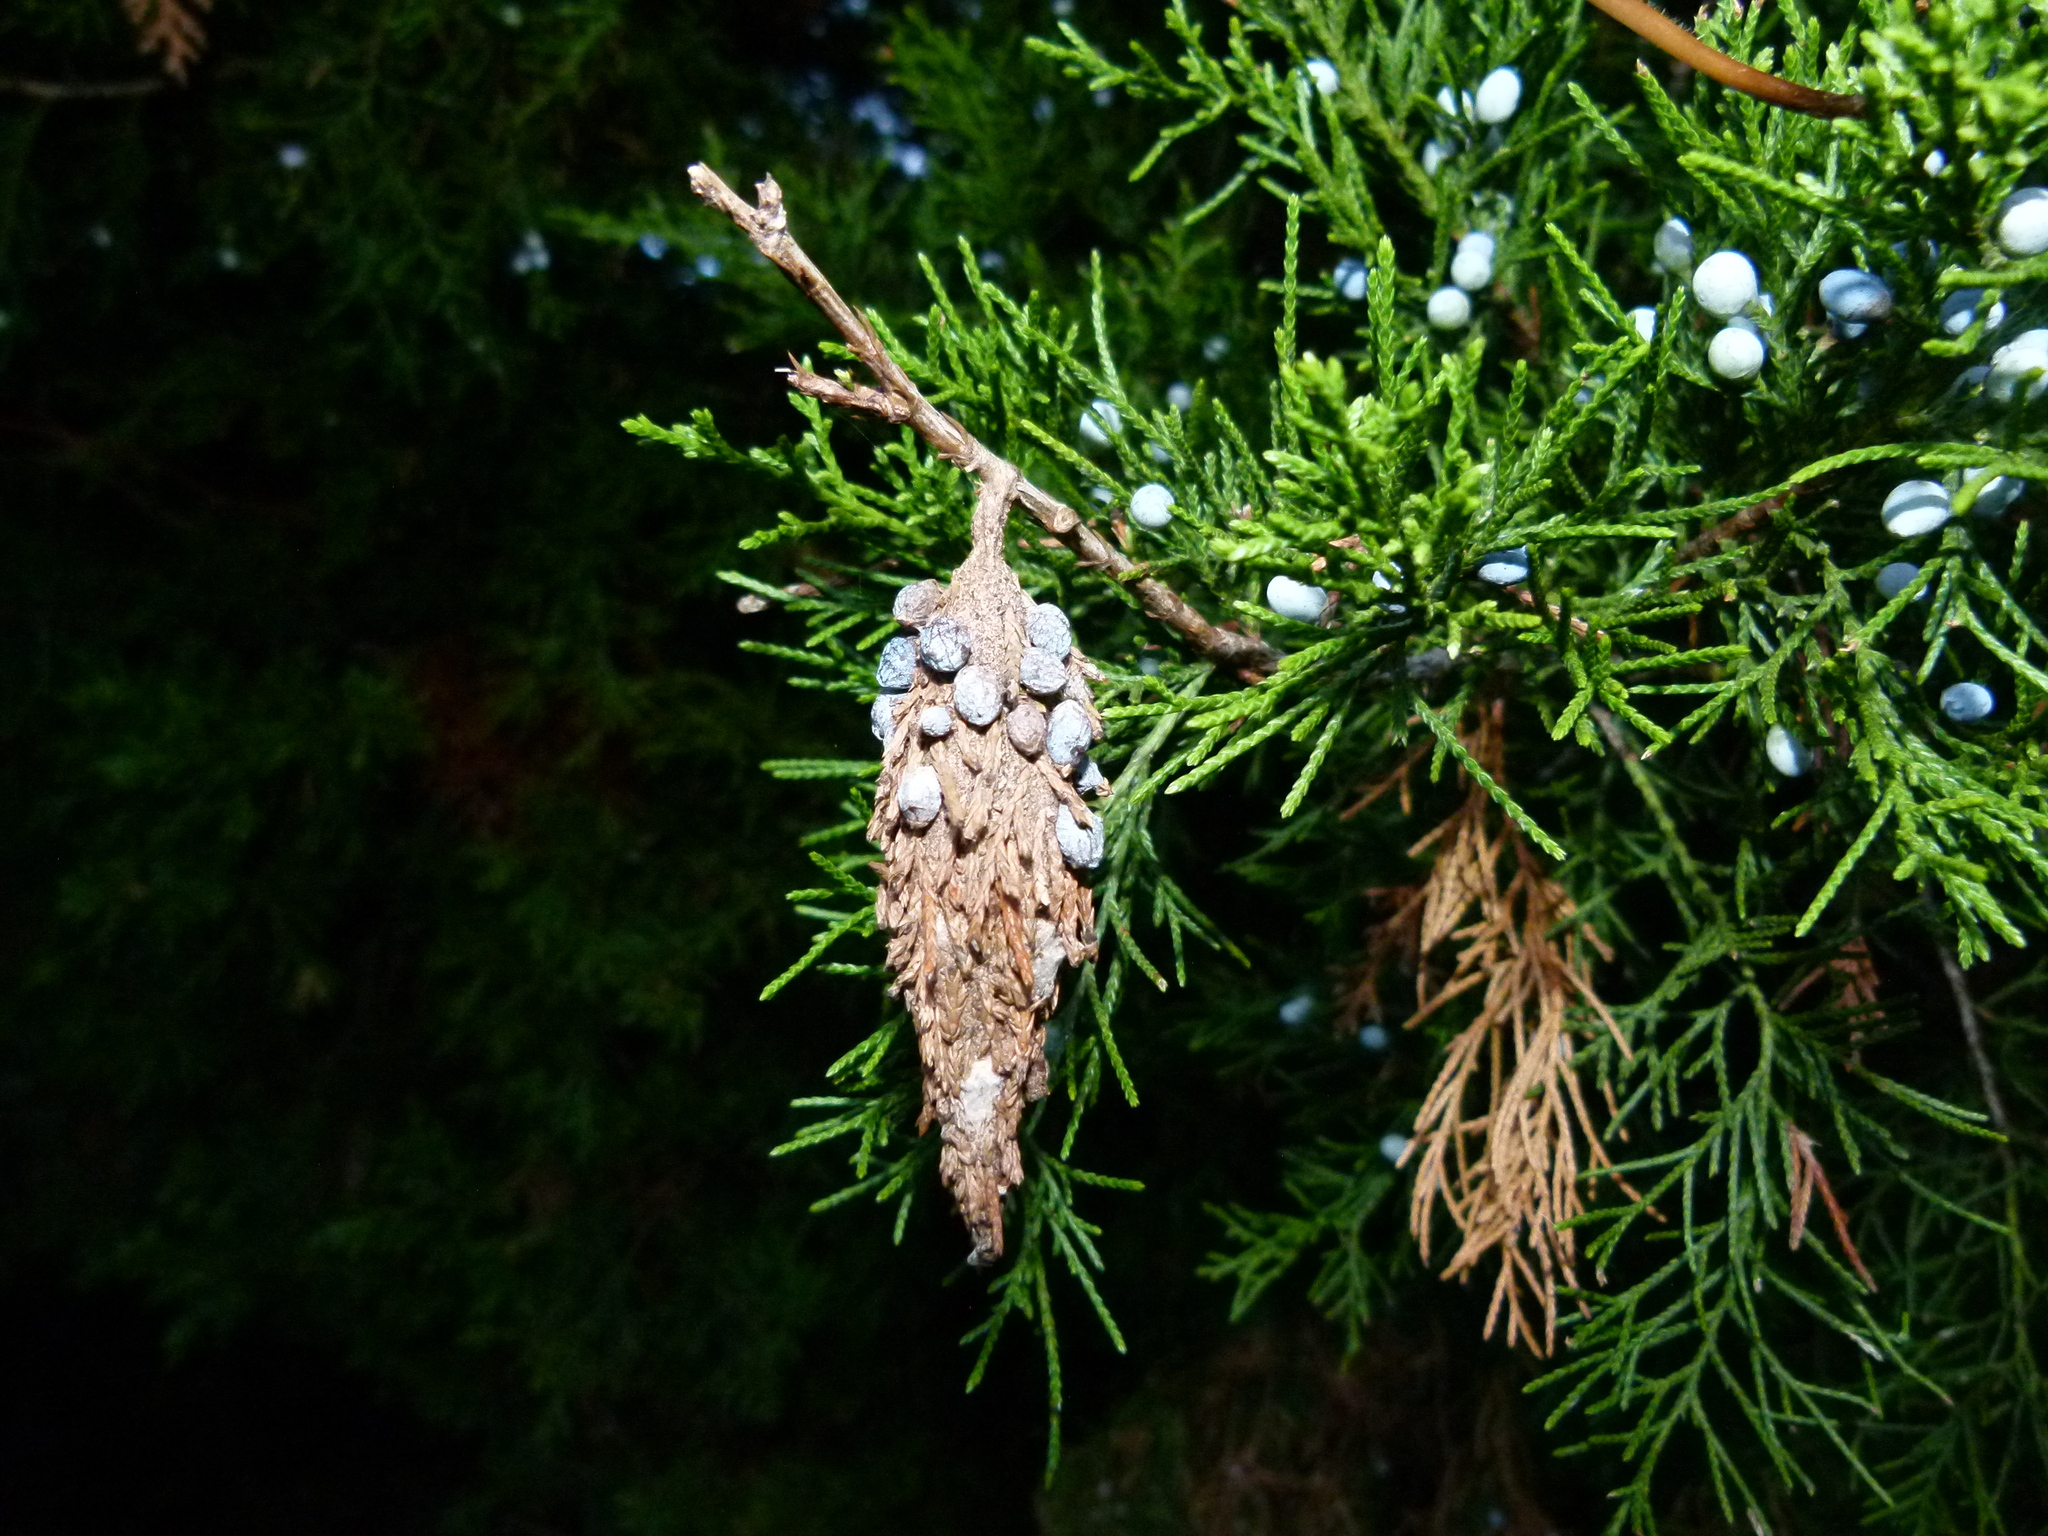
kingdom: Animalia
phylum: Arthropoda
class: Insecta
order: Lepidoptera
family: Psychidae
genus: Thyridopteryx
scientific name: Thyridopteryx ephemeraeformis
